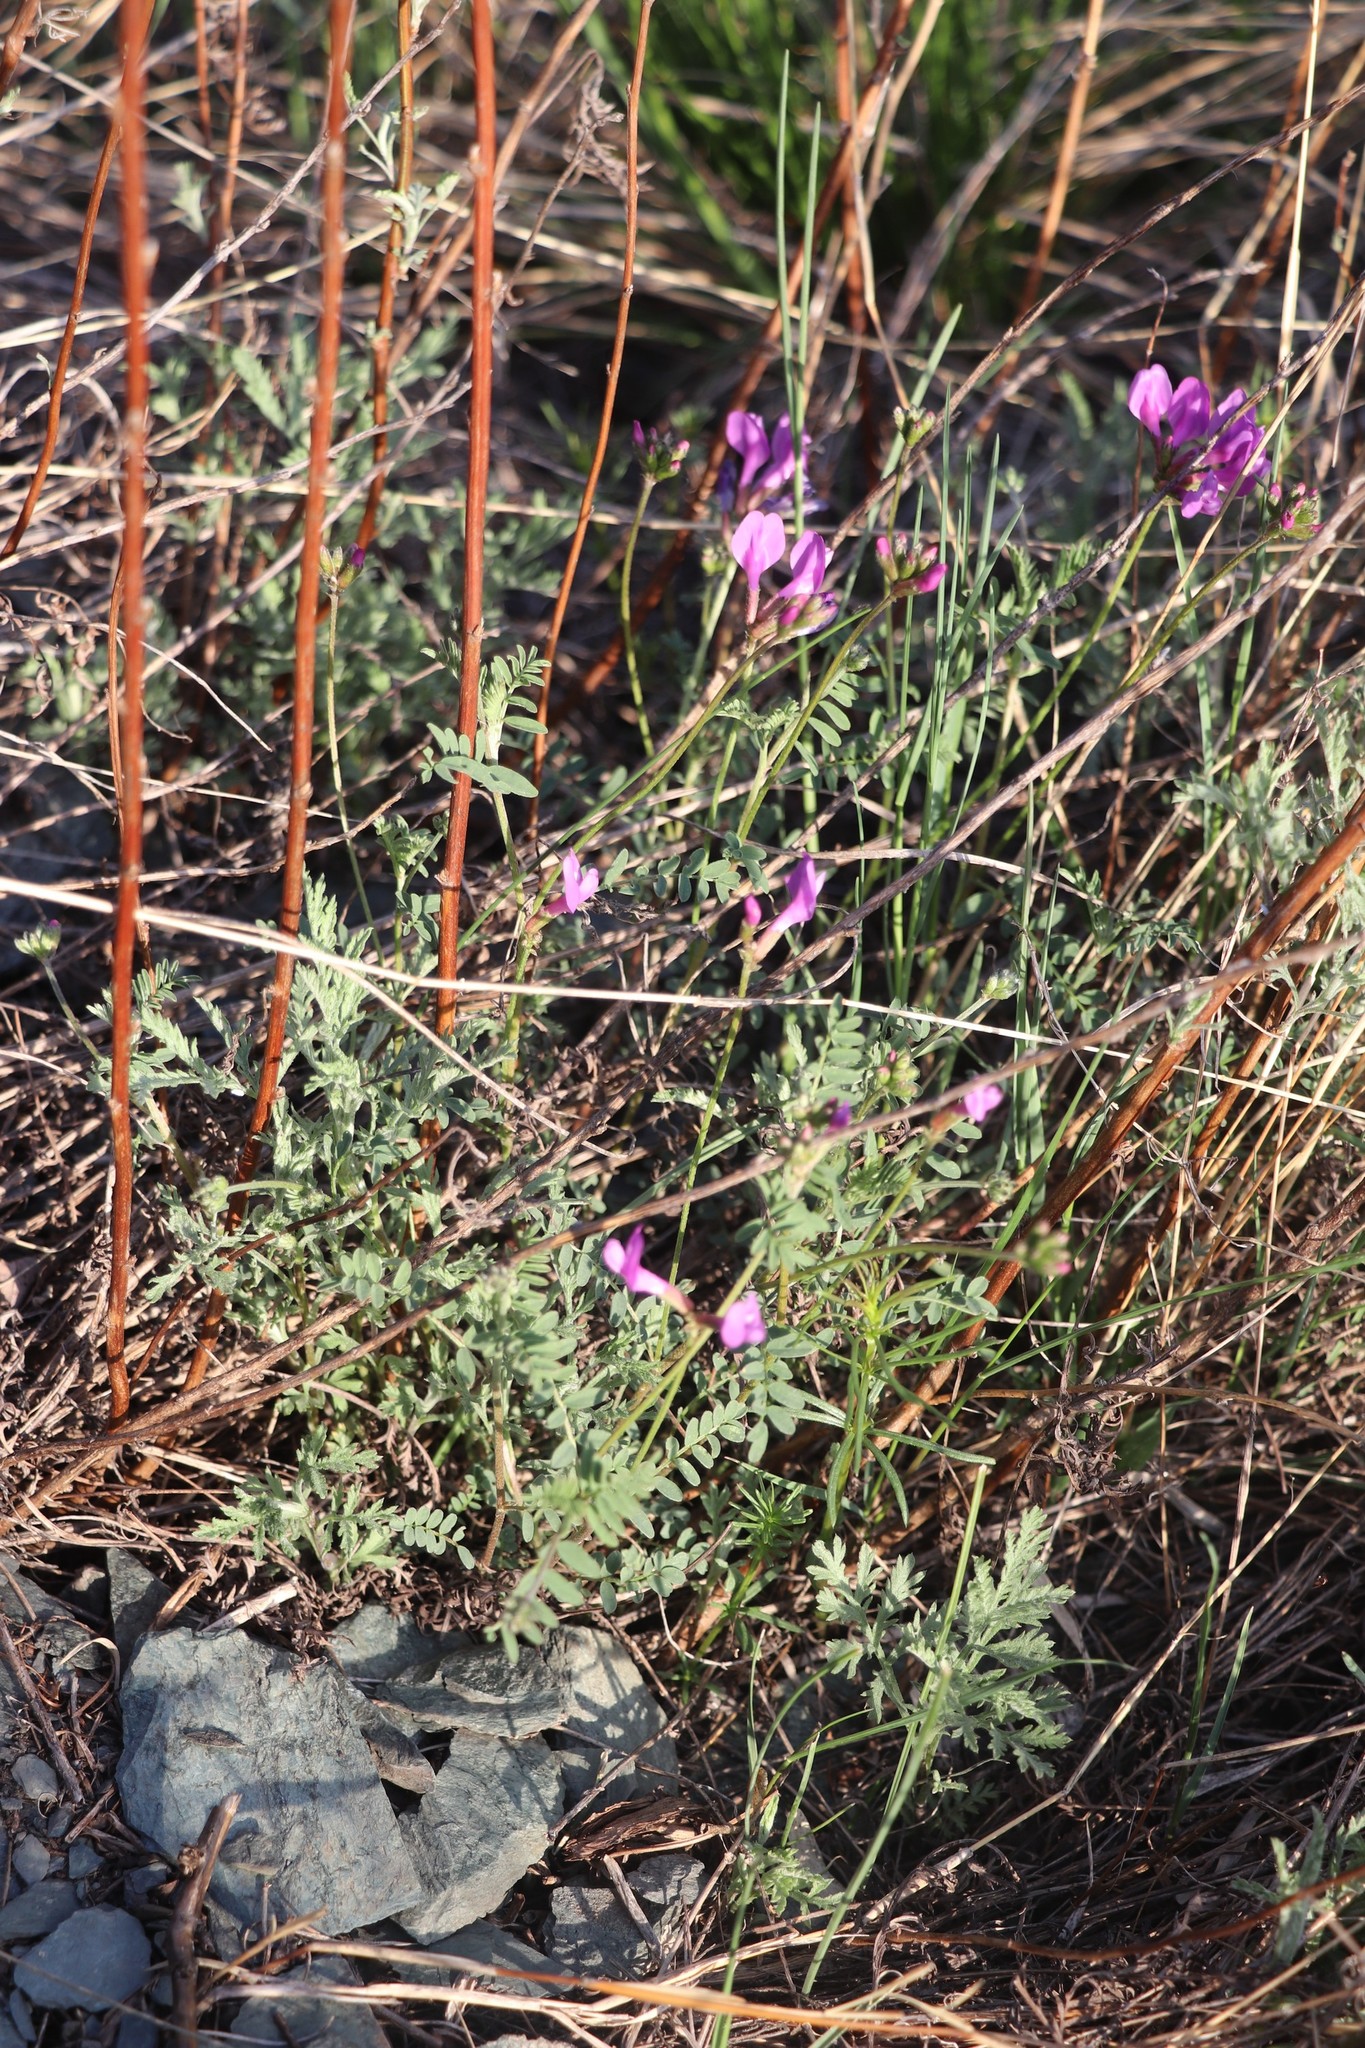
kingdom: Plantae
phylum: Tracheophyta
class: Magnoliopsida
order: Fabales
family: Fabaceae
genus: Astragalus
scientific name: Astragalus ceratoides
